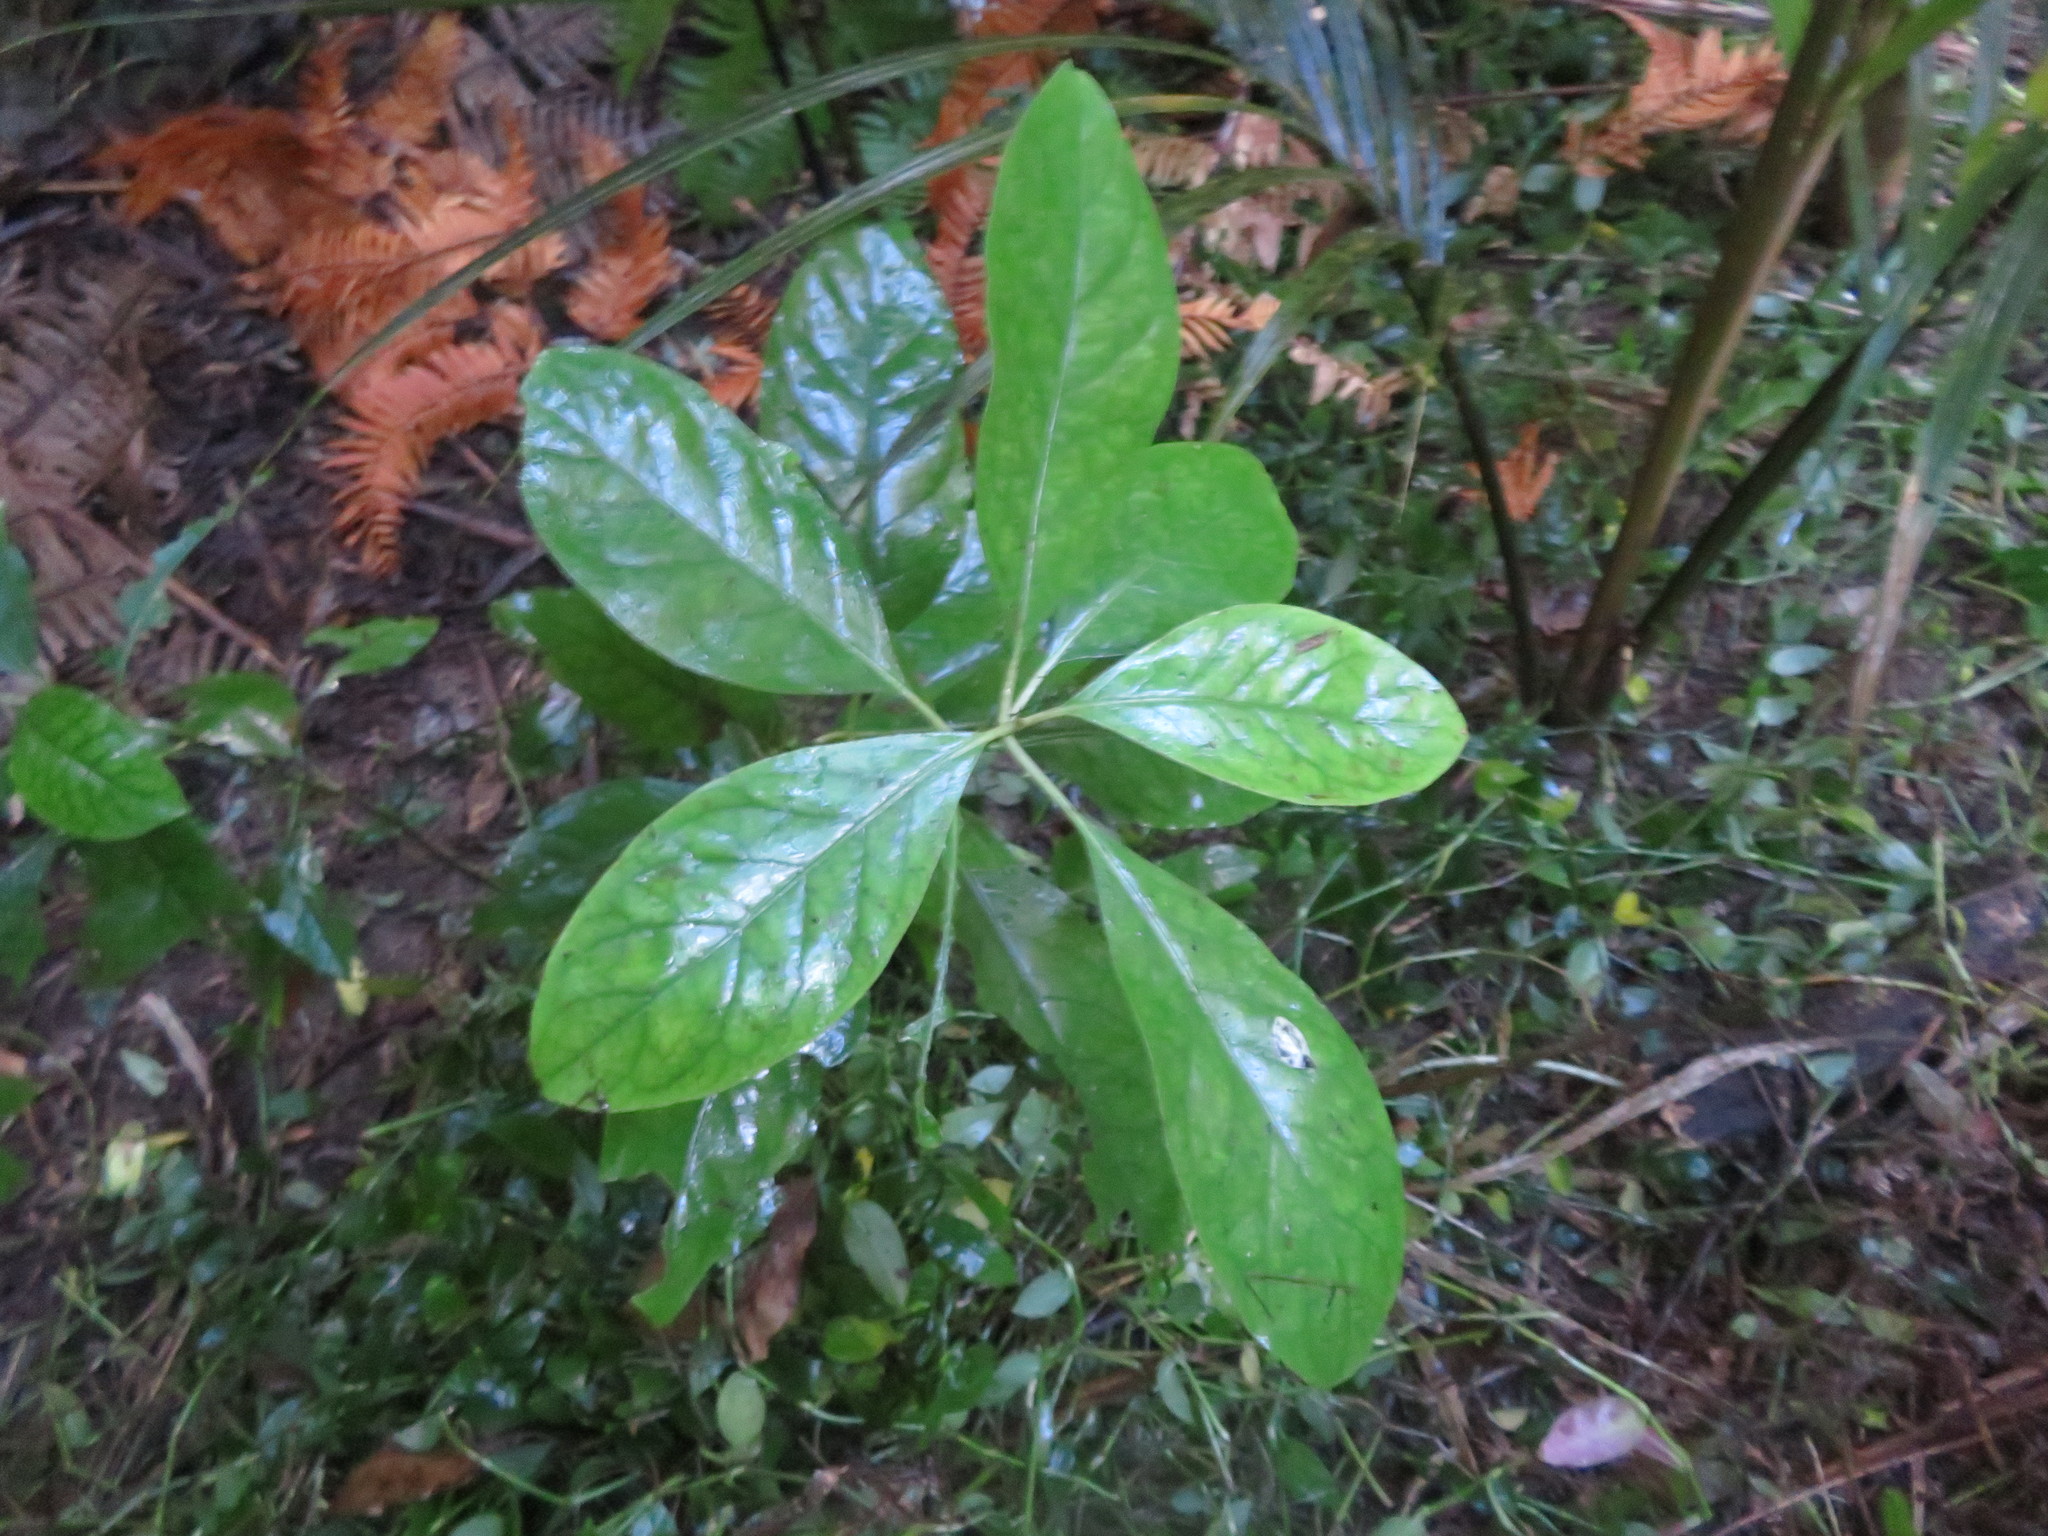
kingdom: Plantae
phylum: Tracheophyta
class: Magnoliopsida
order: Gentianales
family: Rubiaceae
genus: Coprosma
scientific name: Coprosma autumnalis
